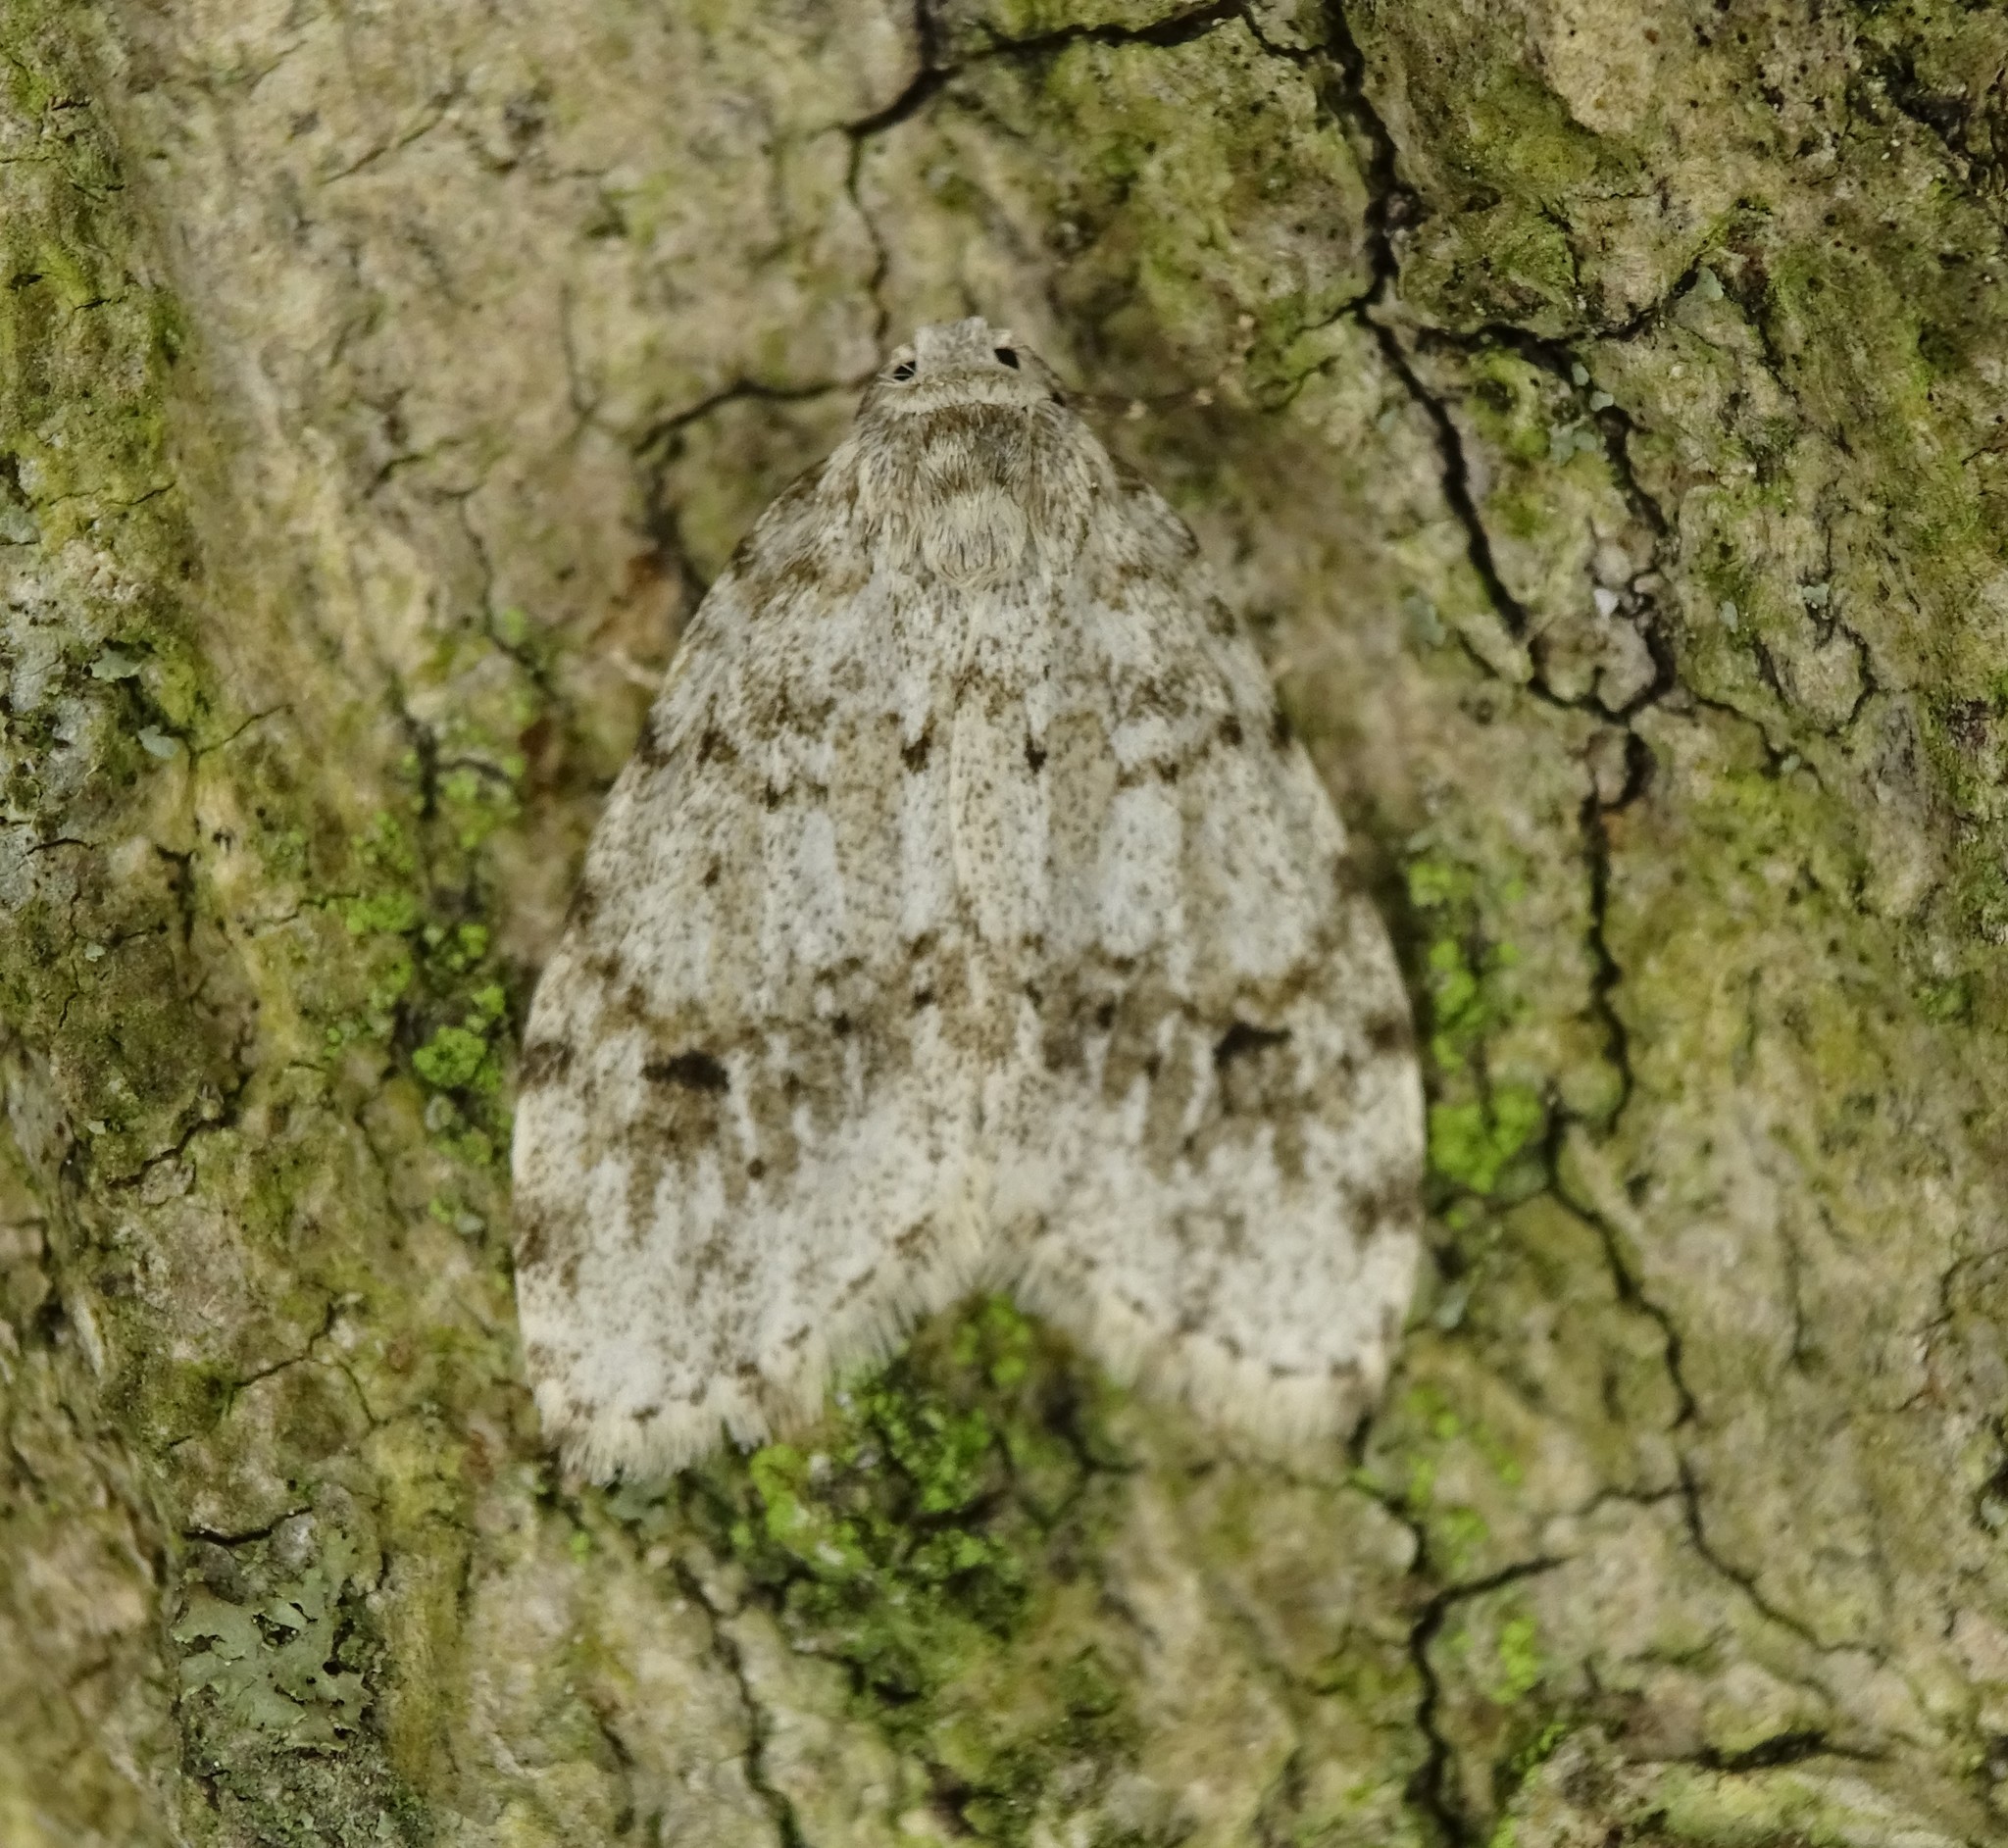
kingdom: Animalia
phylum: Arthropoda
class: Insecta
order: Lepidoptera
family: Erebidae
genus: Clemensia
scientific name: Clemensia albata
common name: Little white lichen moth
